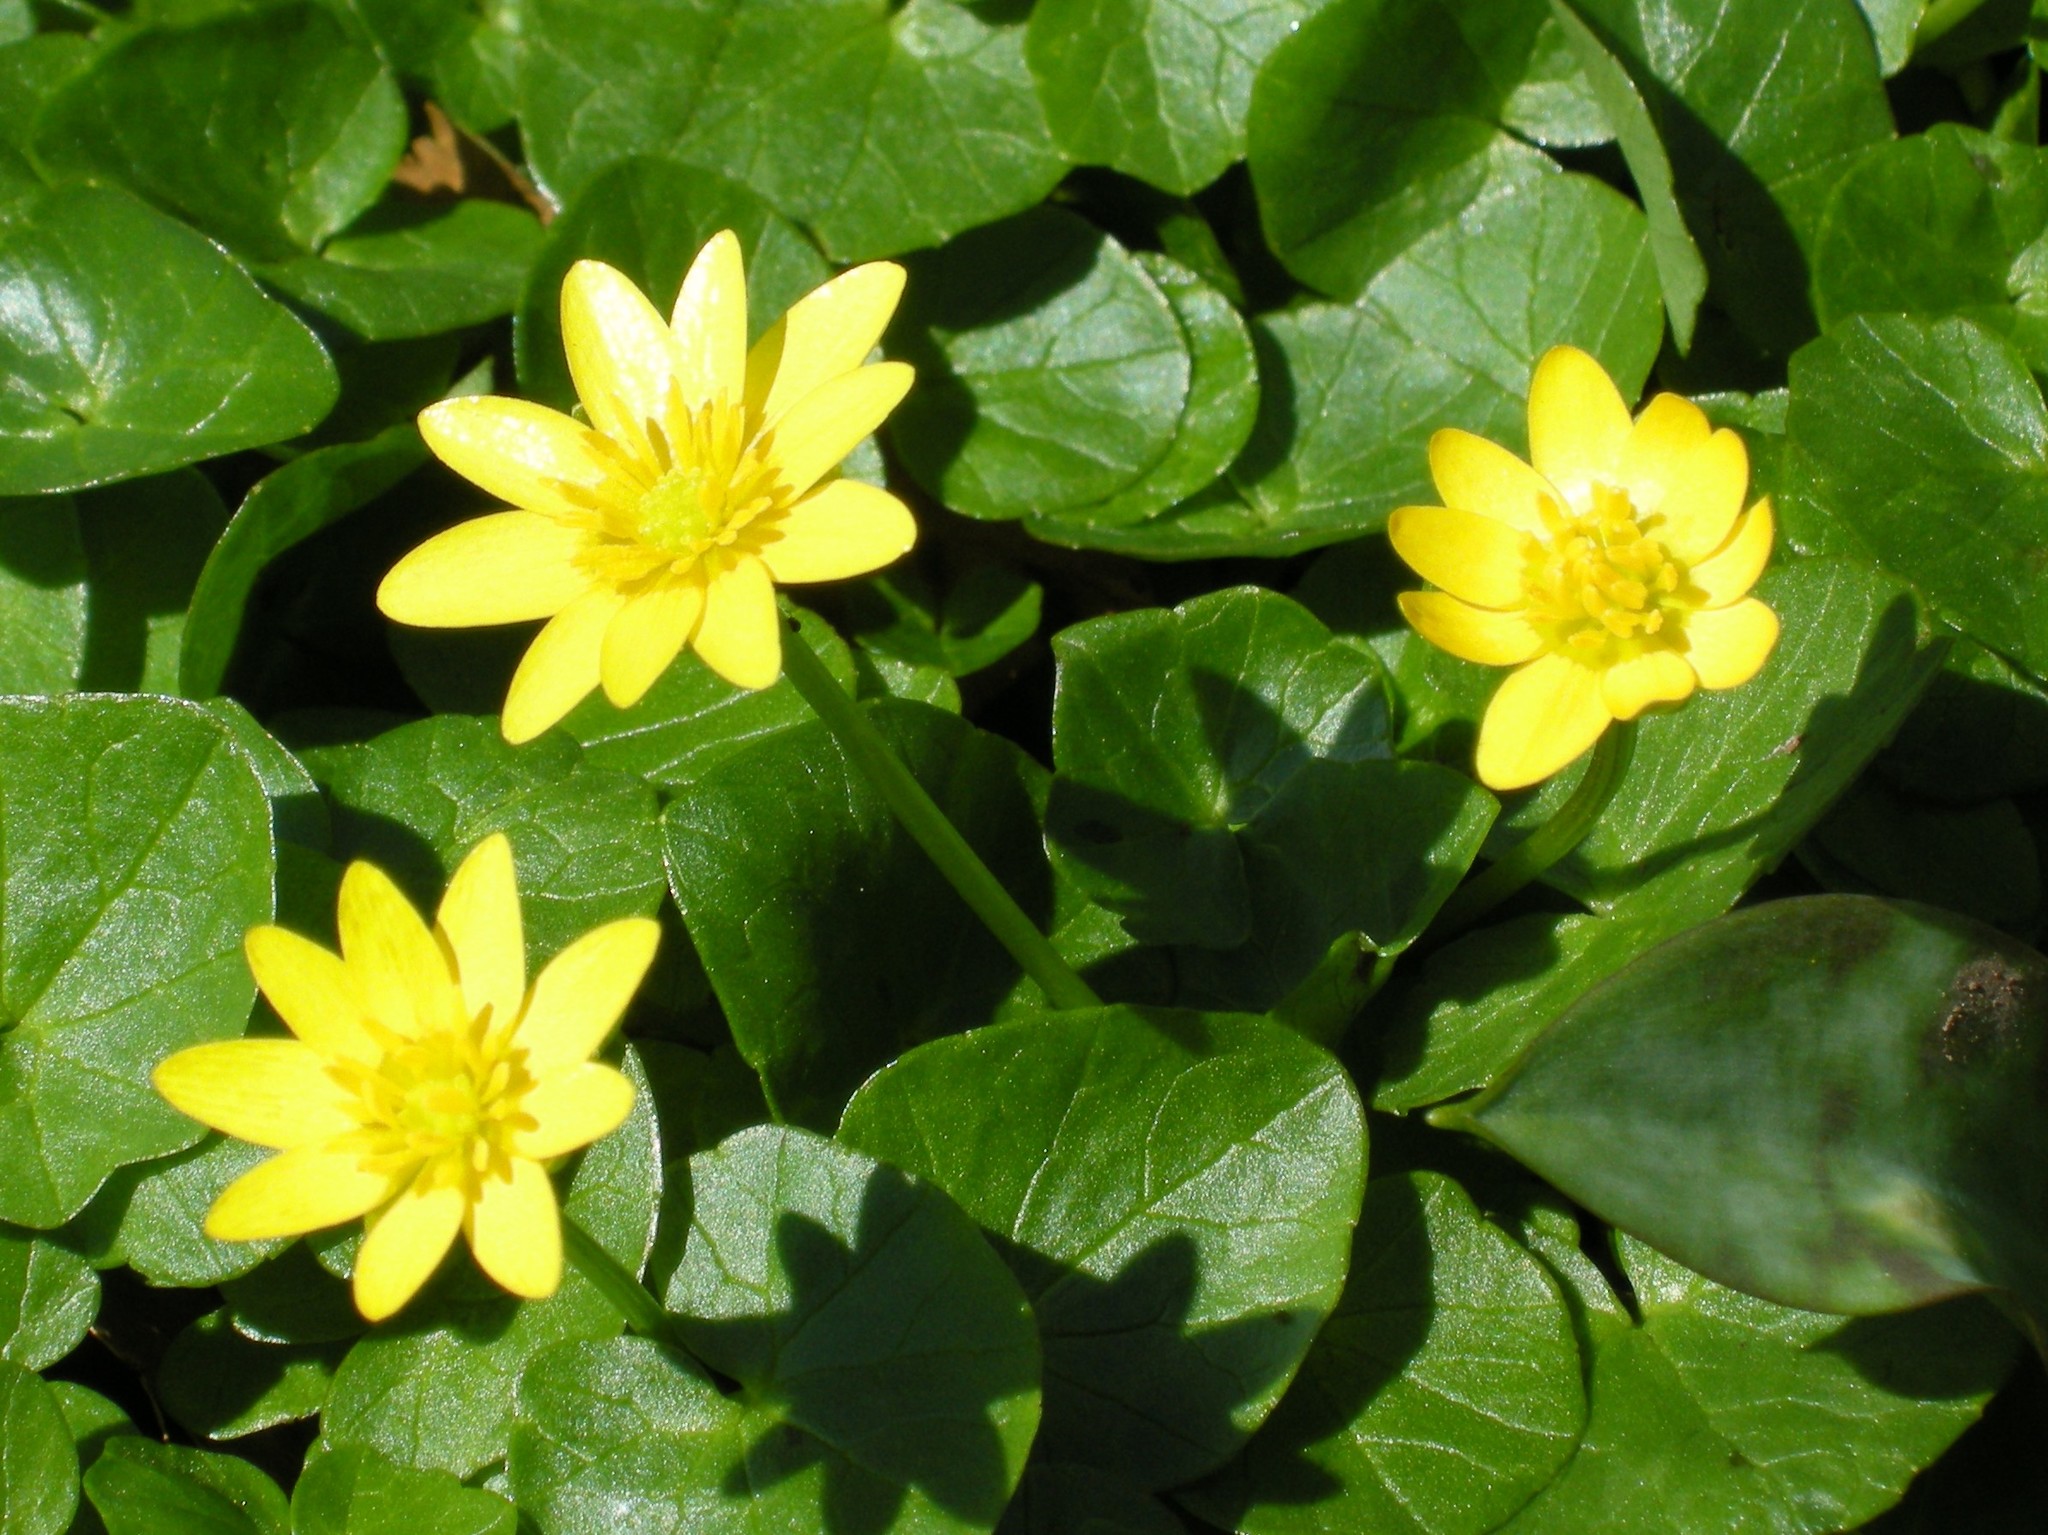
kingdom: Plantae
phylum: Tracheophyta
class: Magnoliopsida
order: Ranunculales
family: Ranunculaceae
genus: Ficaria
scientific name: Ficaria verna
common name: Lesser celandine
